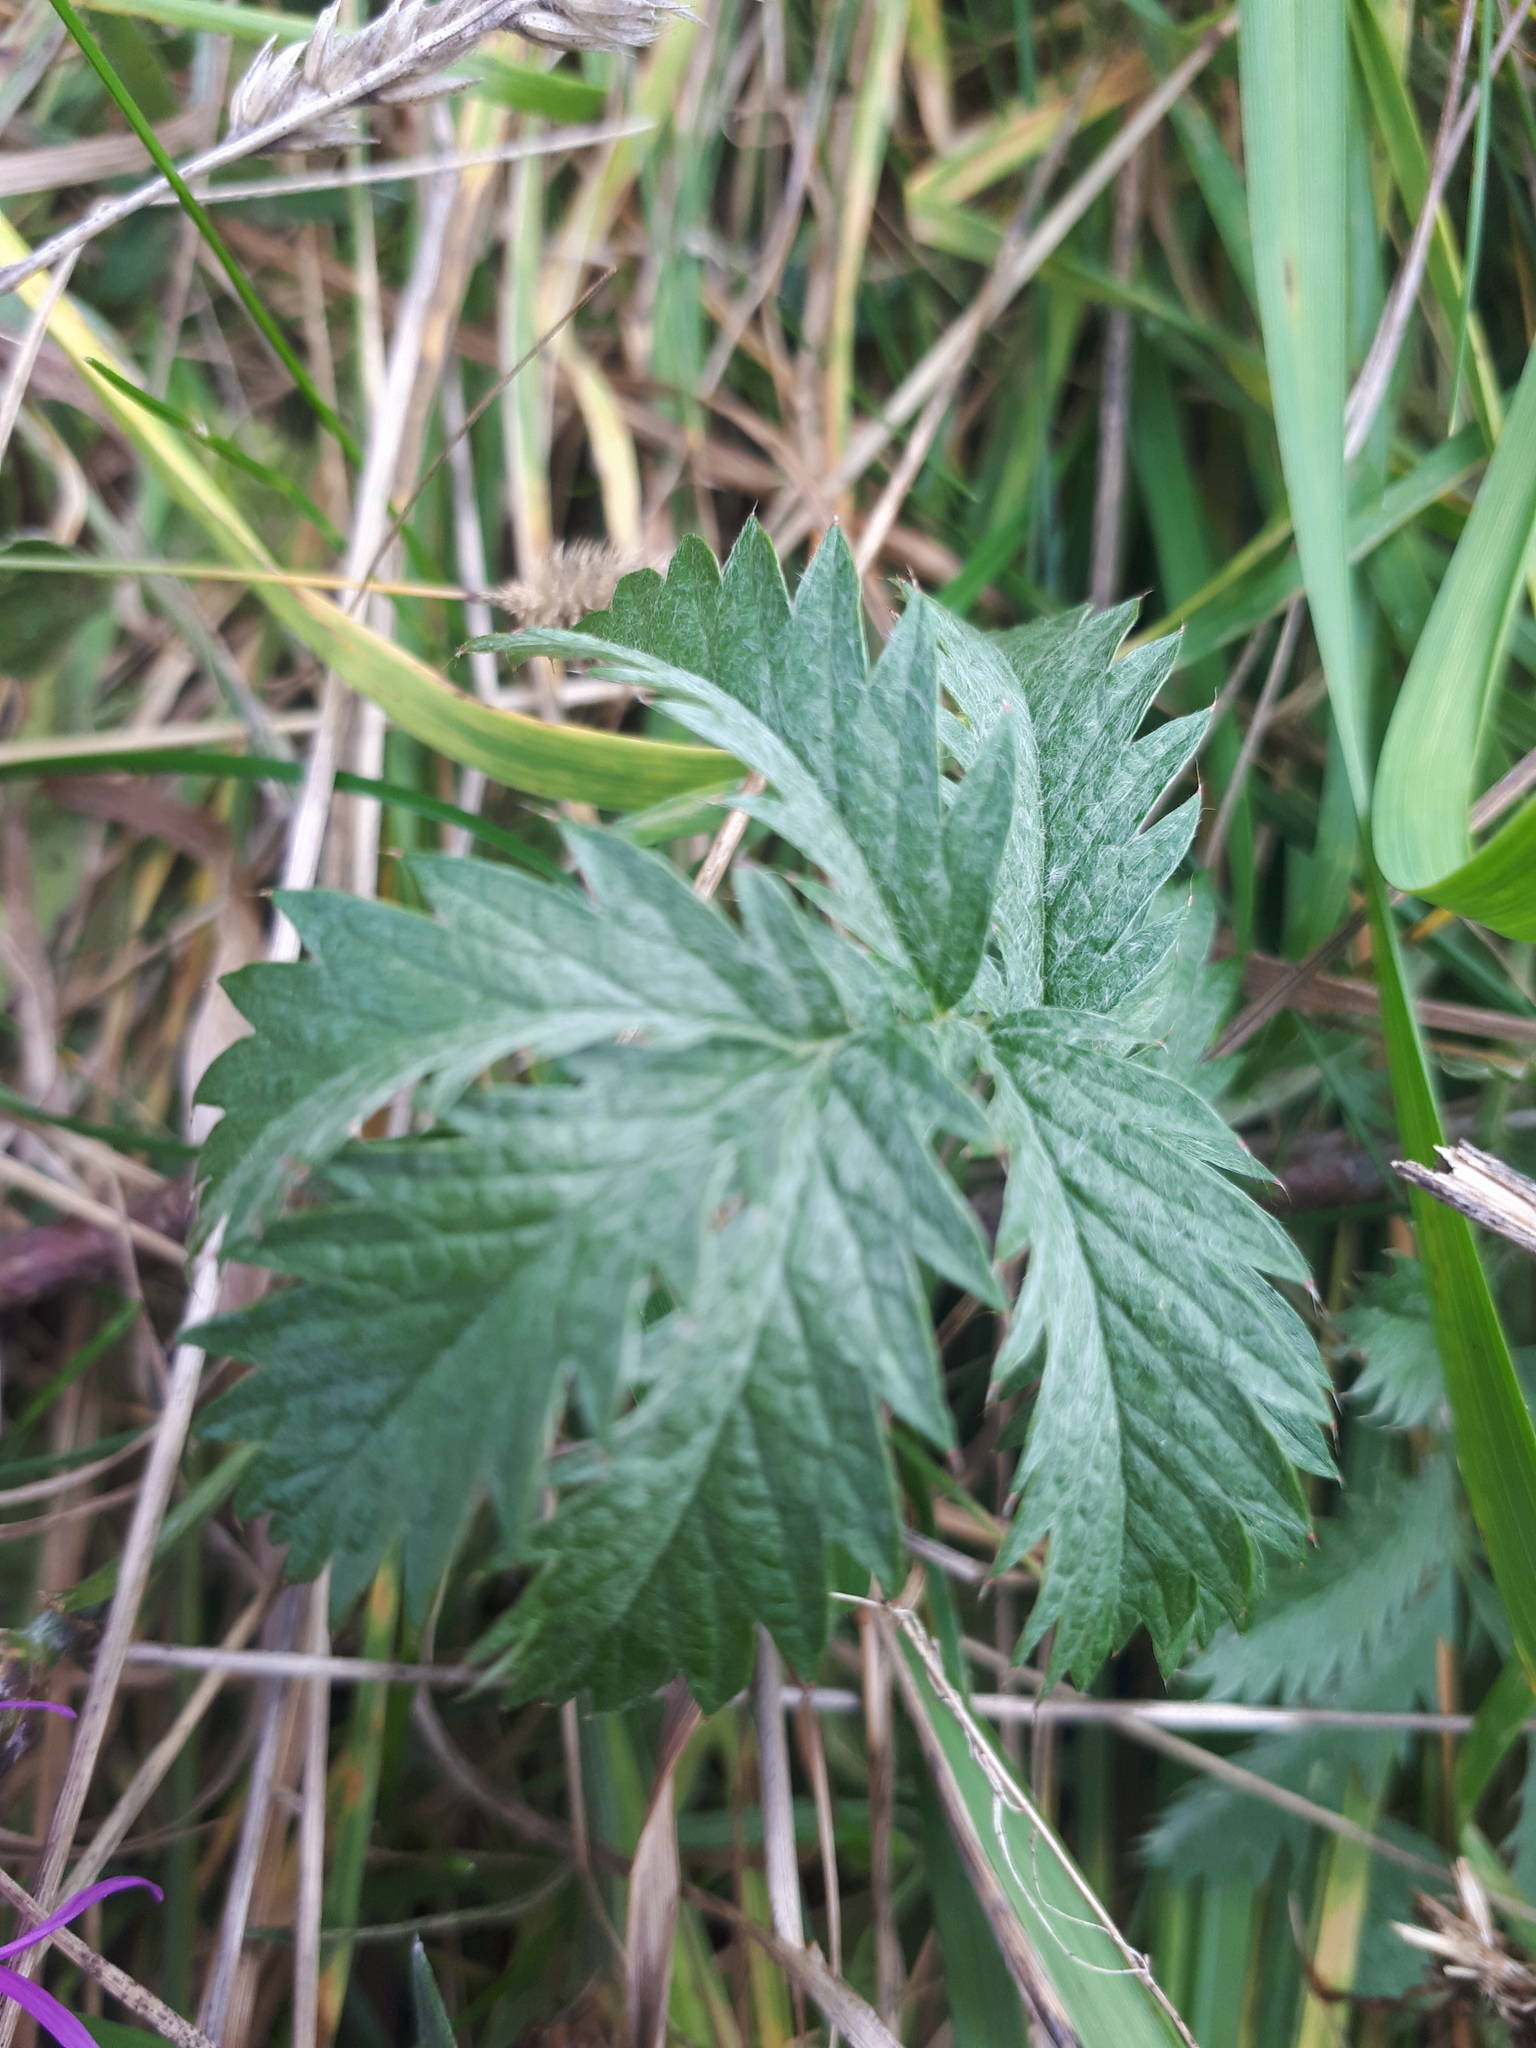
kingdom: Plantae
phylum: Tracheophyta
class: Magnoliopsida
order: Rosales
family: Rosaceae
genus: Argentina
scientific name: Argentina anserina
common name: Common silverweed
